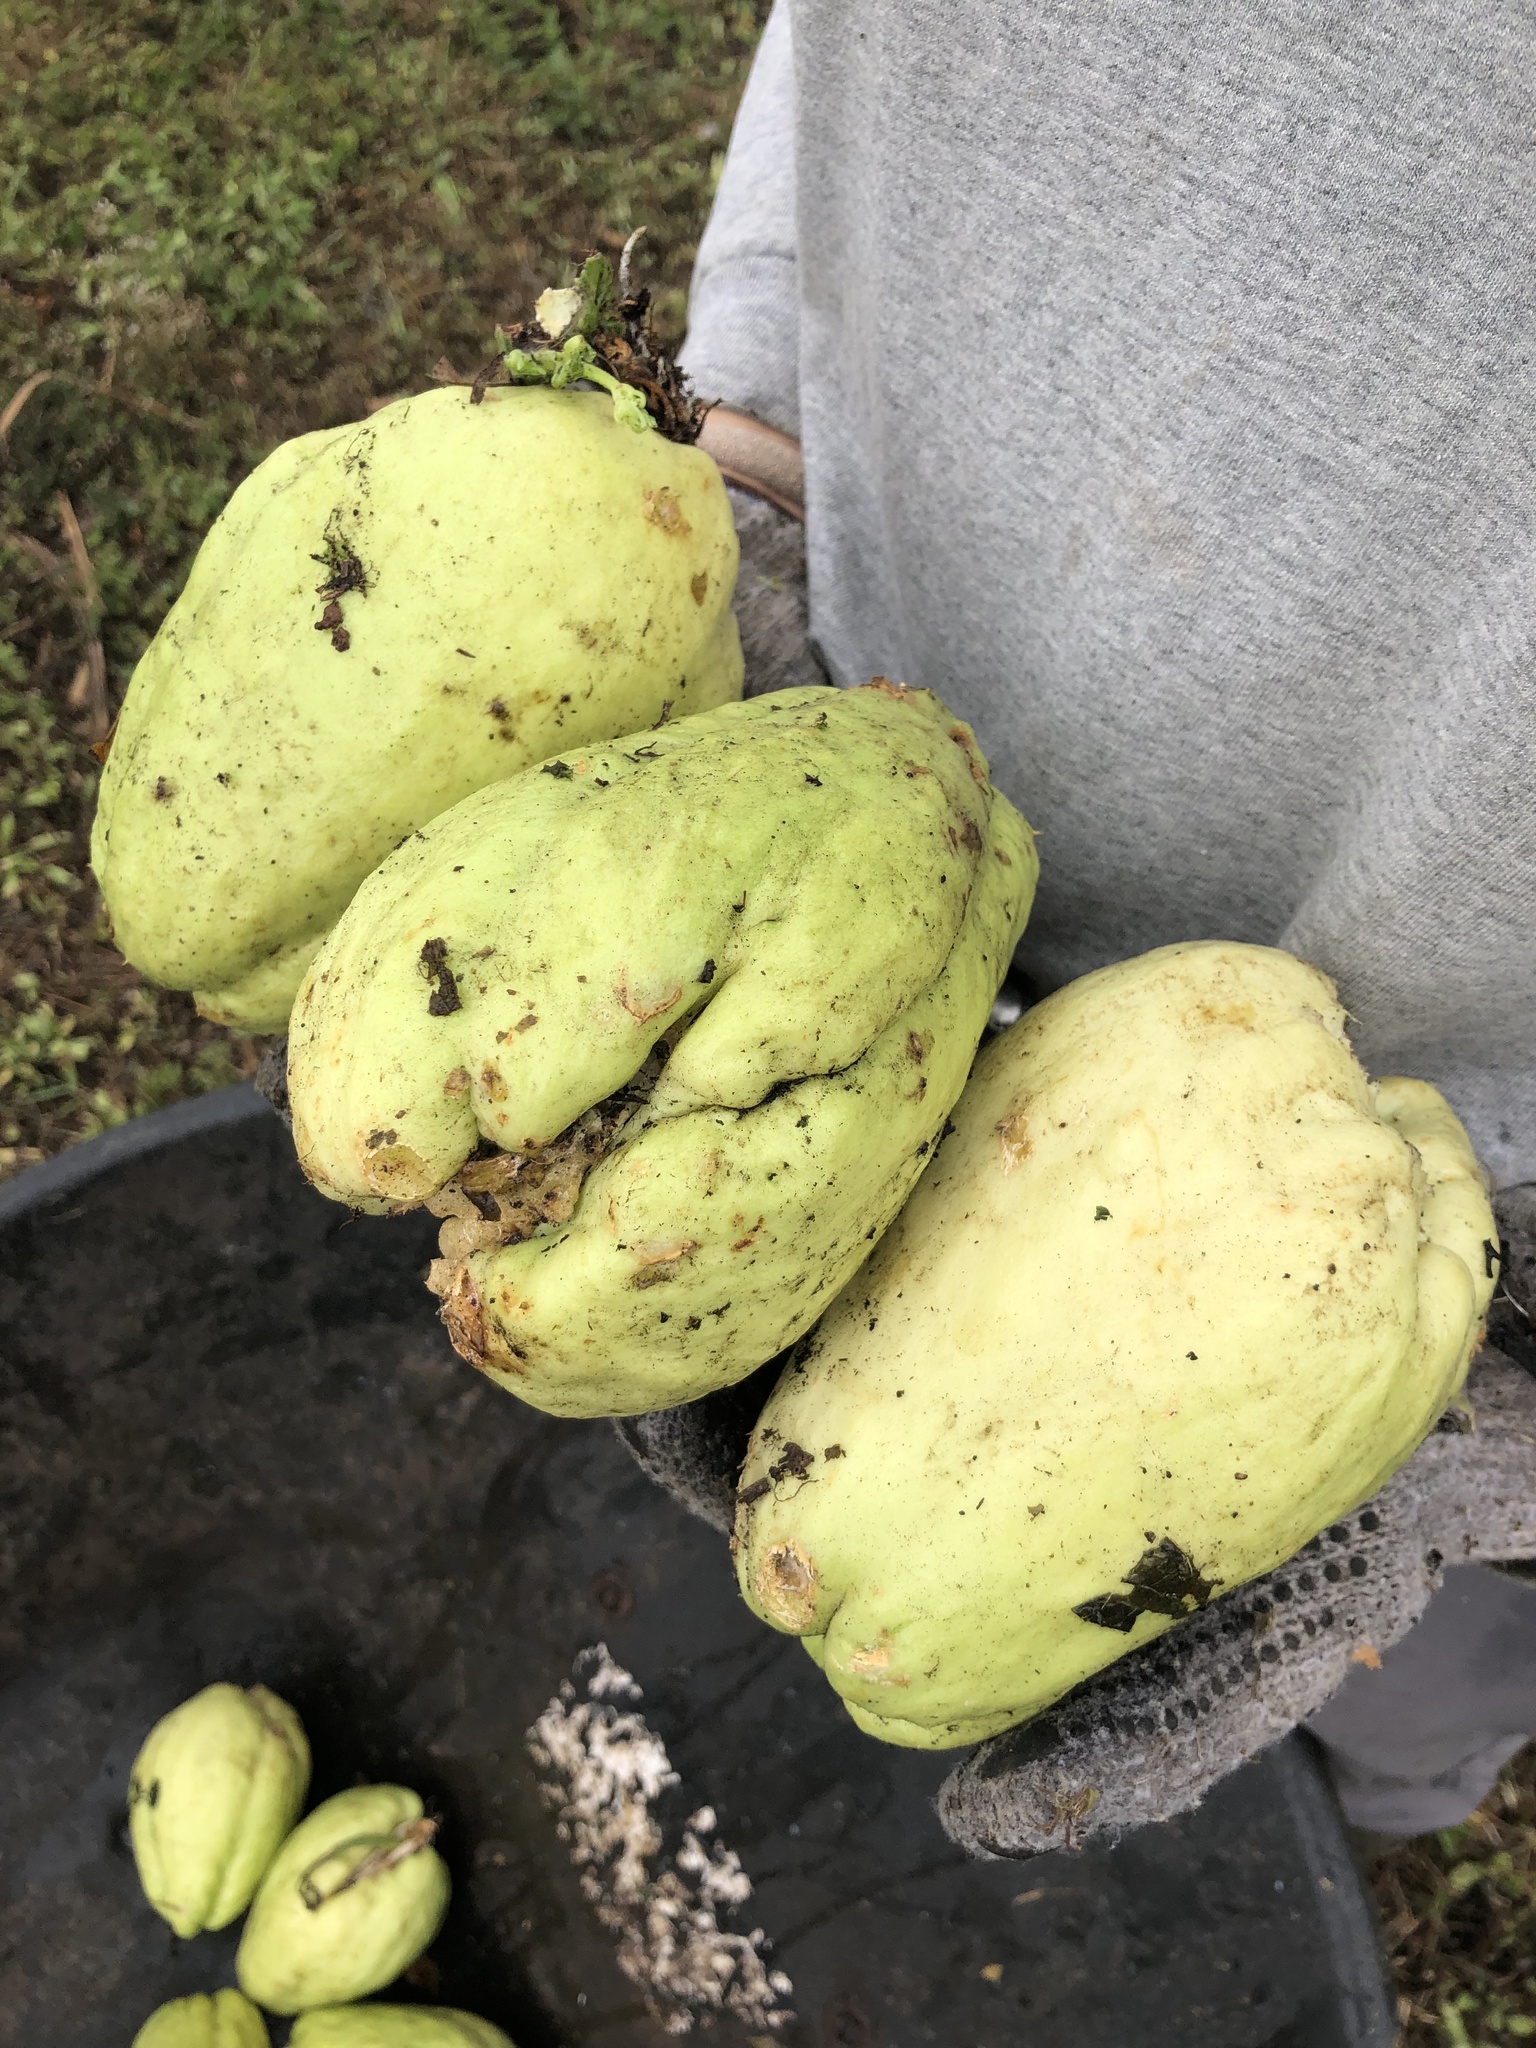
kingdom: Plantae
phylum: Tracheophyta
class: Magnoliopsida
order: Cucurbitales
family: Cucurbitaceae
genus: Sechium
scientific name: Sechium edule
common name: Chayote
